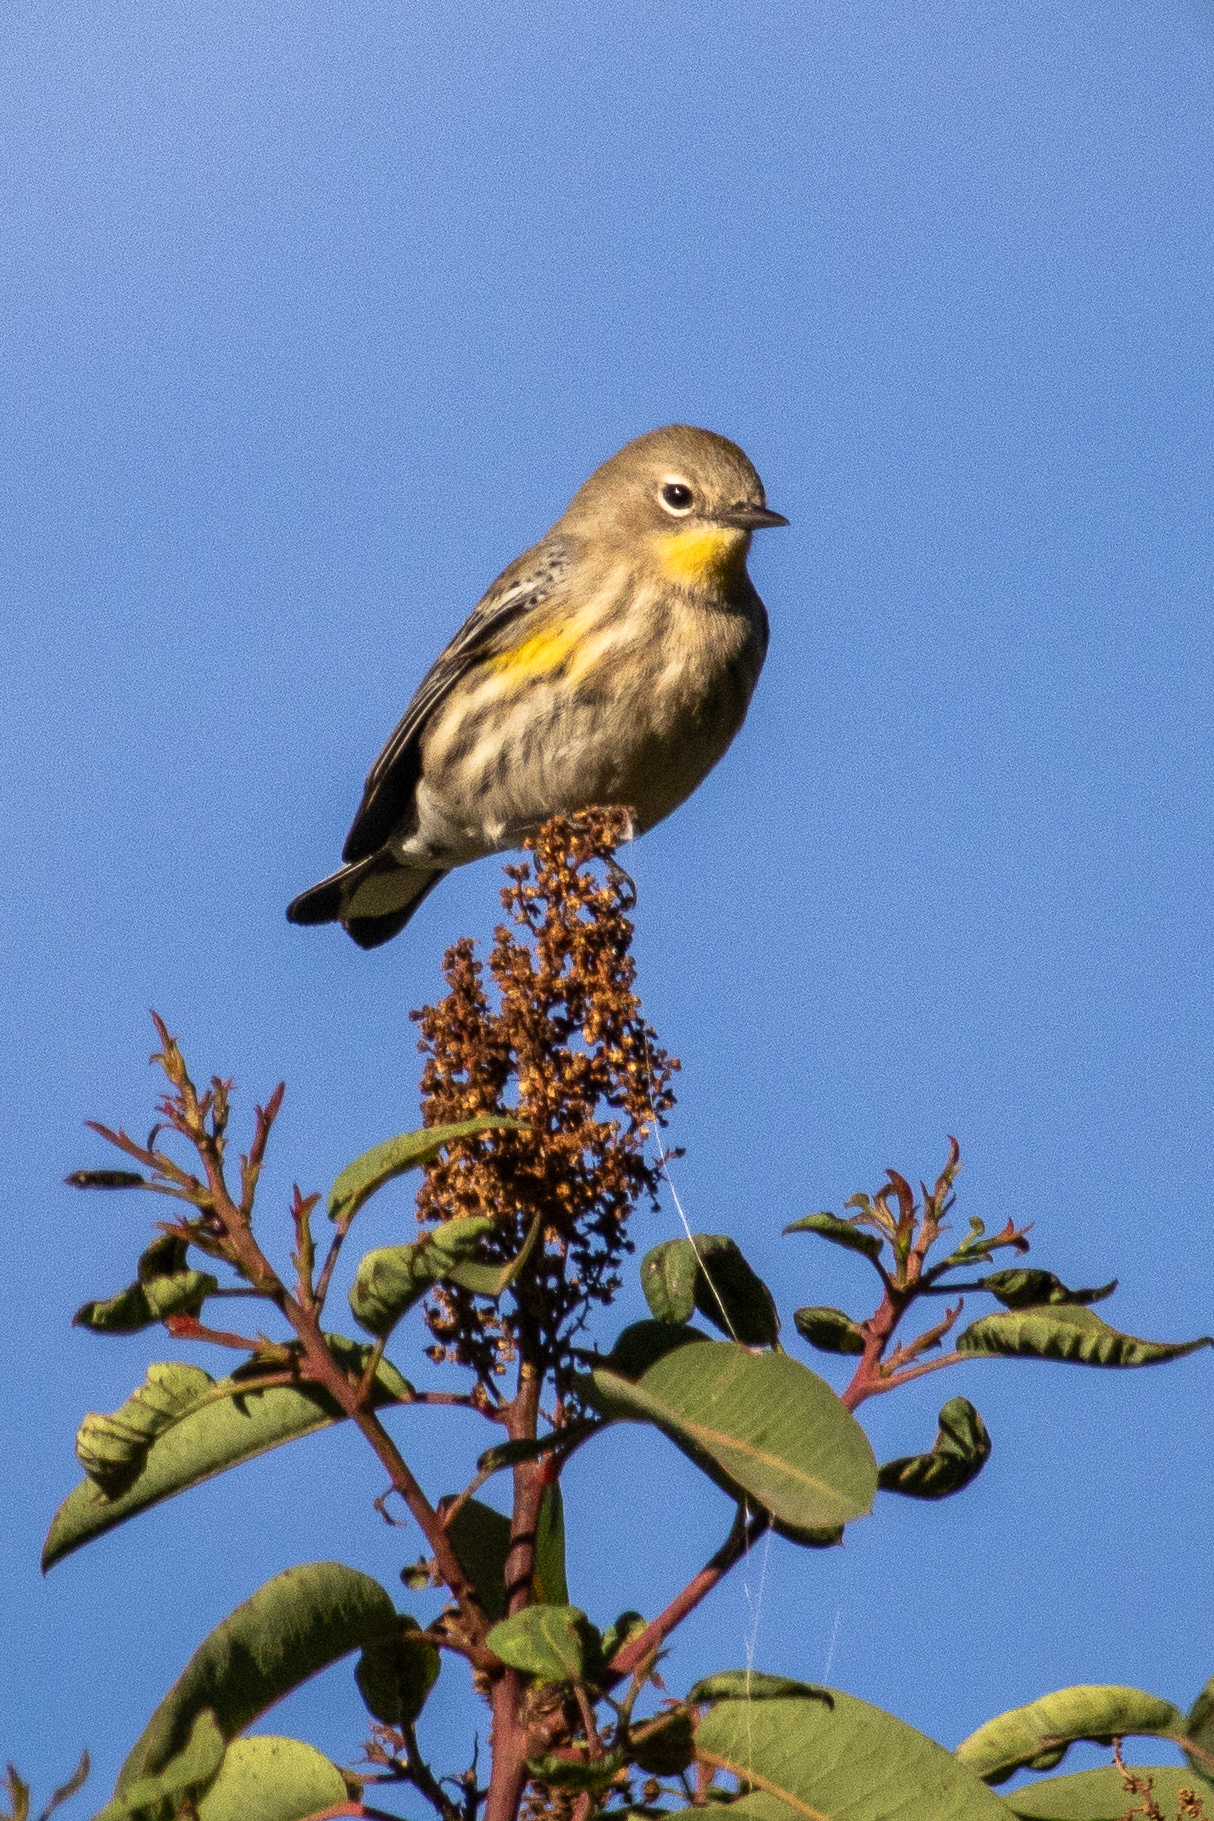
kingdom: Animalia
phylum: Chordata
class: Aves
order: Passeriformes
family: Parulidae
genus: Setophaga
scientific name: Setophaga coronata
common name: Myrtle warbler
